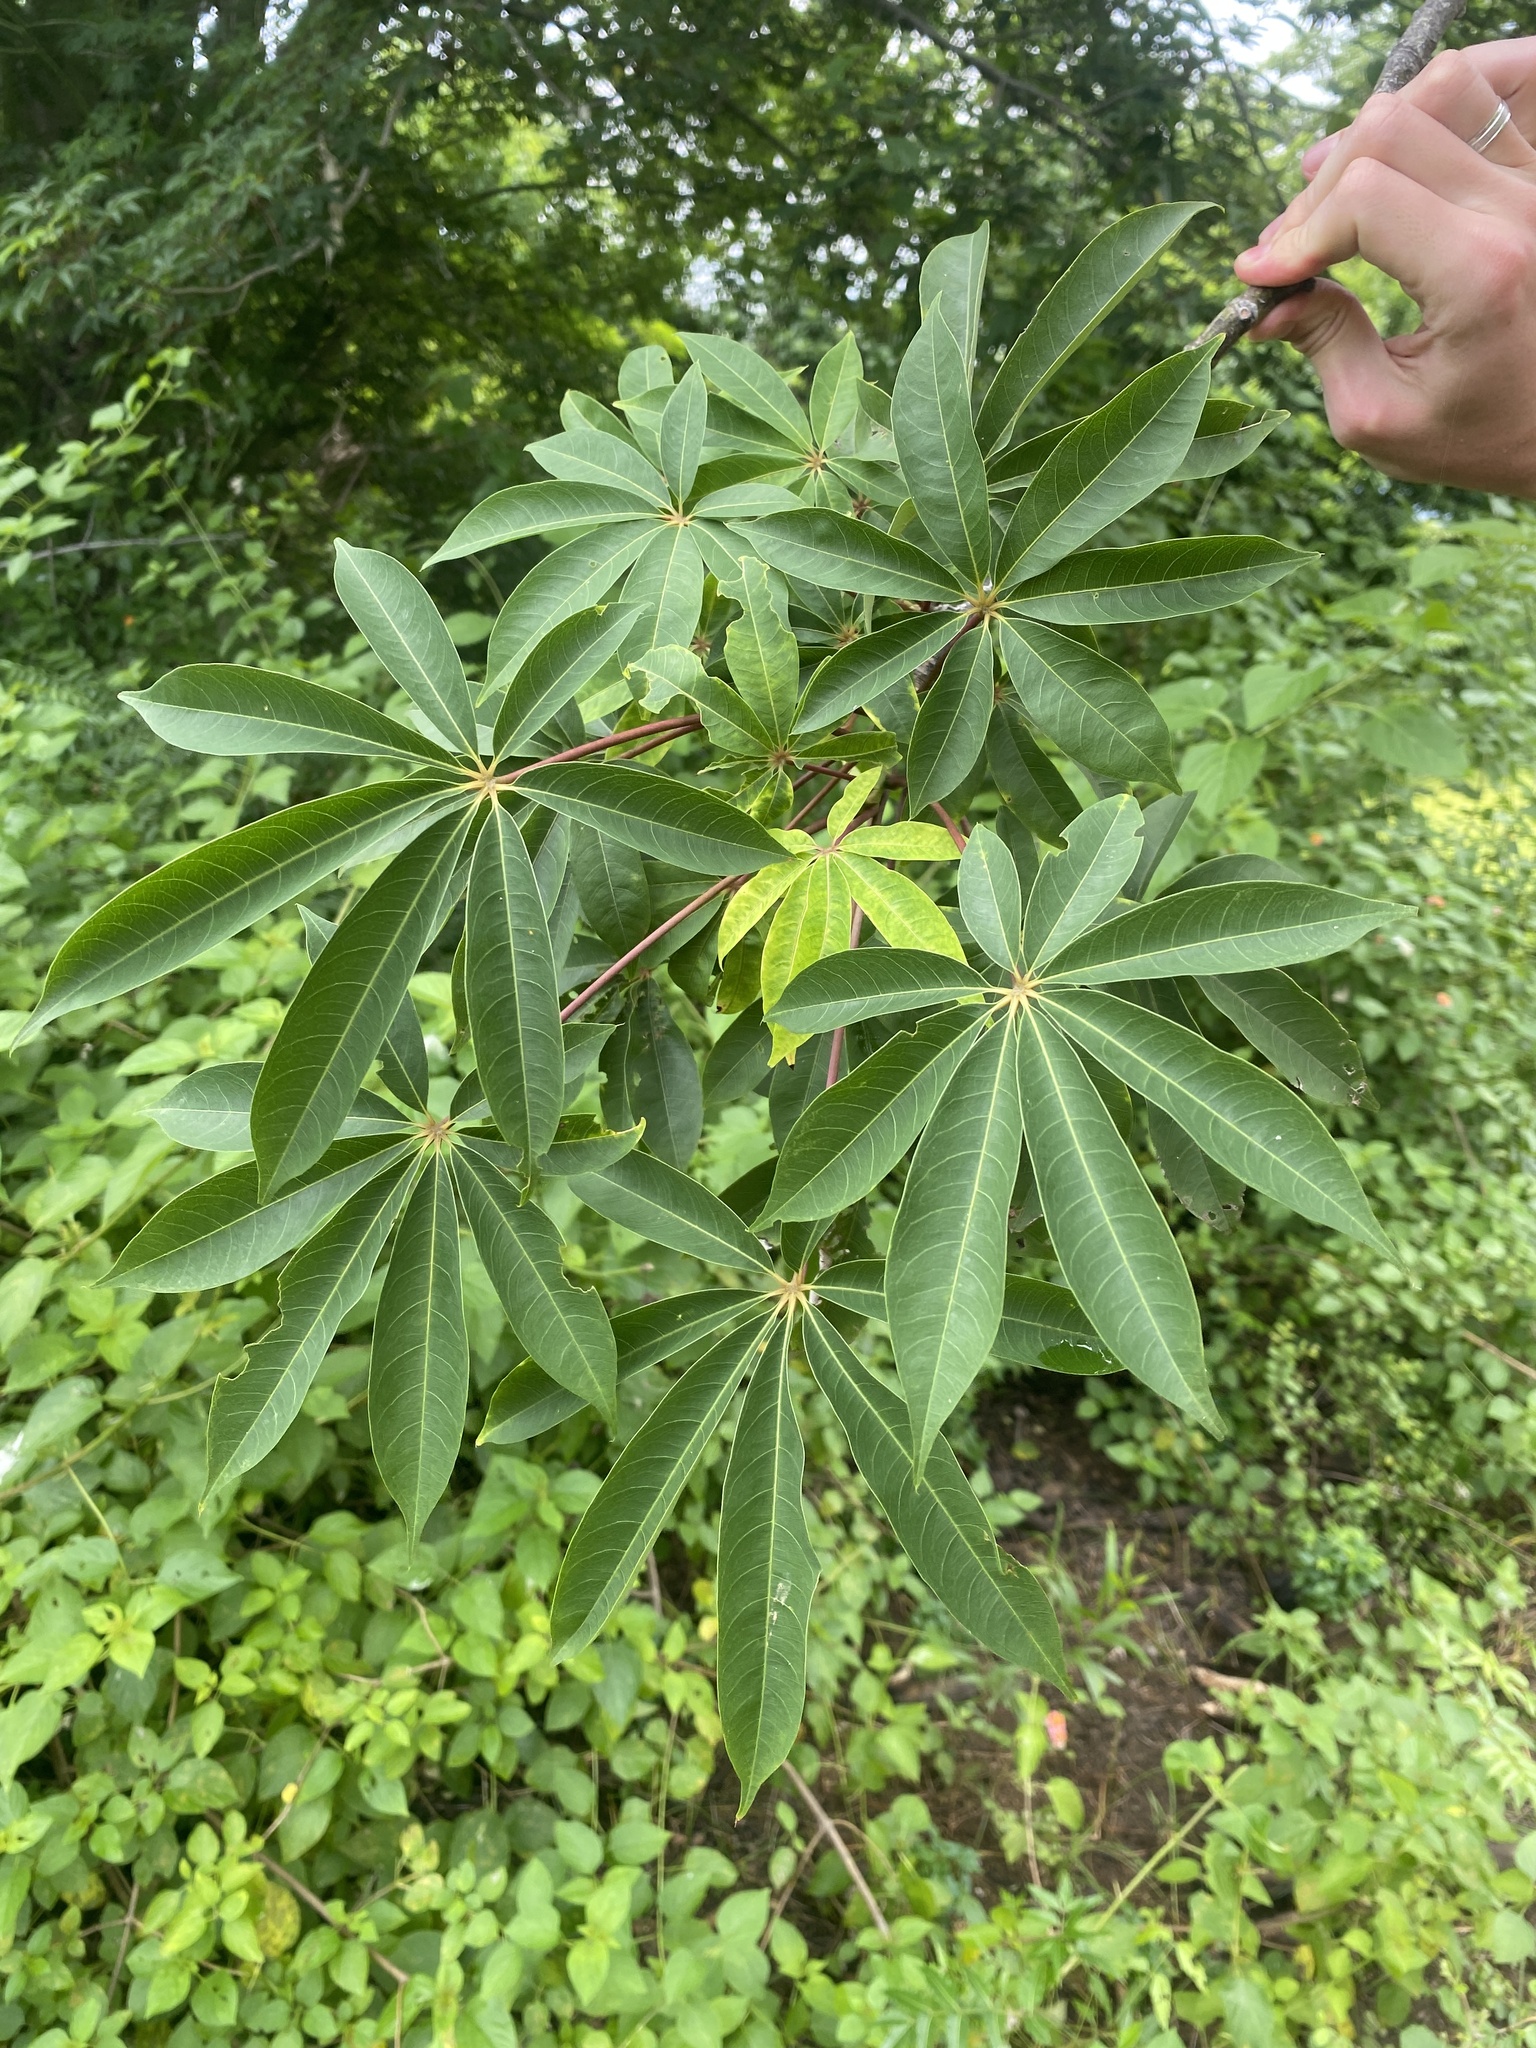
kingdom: Plantae
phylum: Tracheophyta
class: Magnoliopsida
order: Malvales
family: Malvaceae
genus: Ceiba
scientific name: Ceiba pentandra
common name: Kapok
